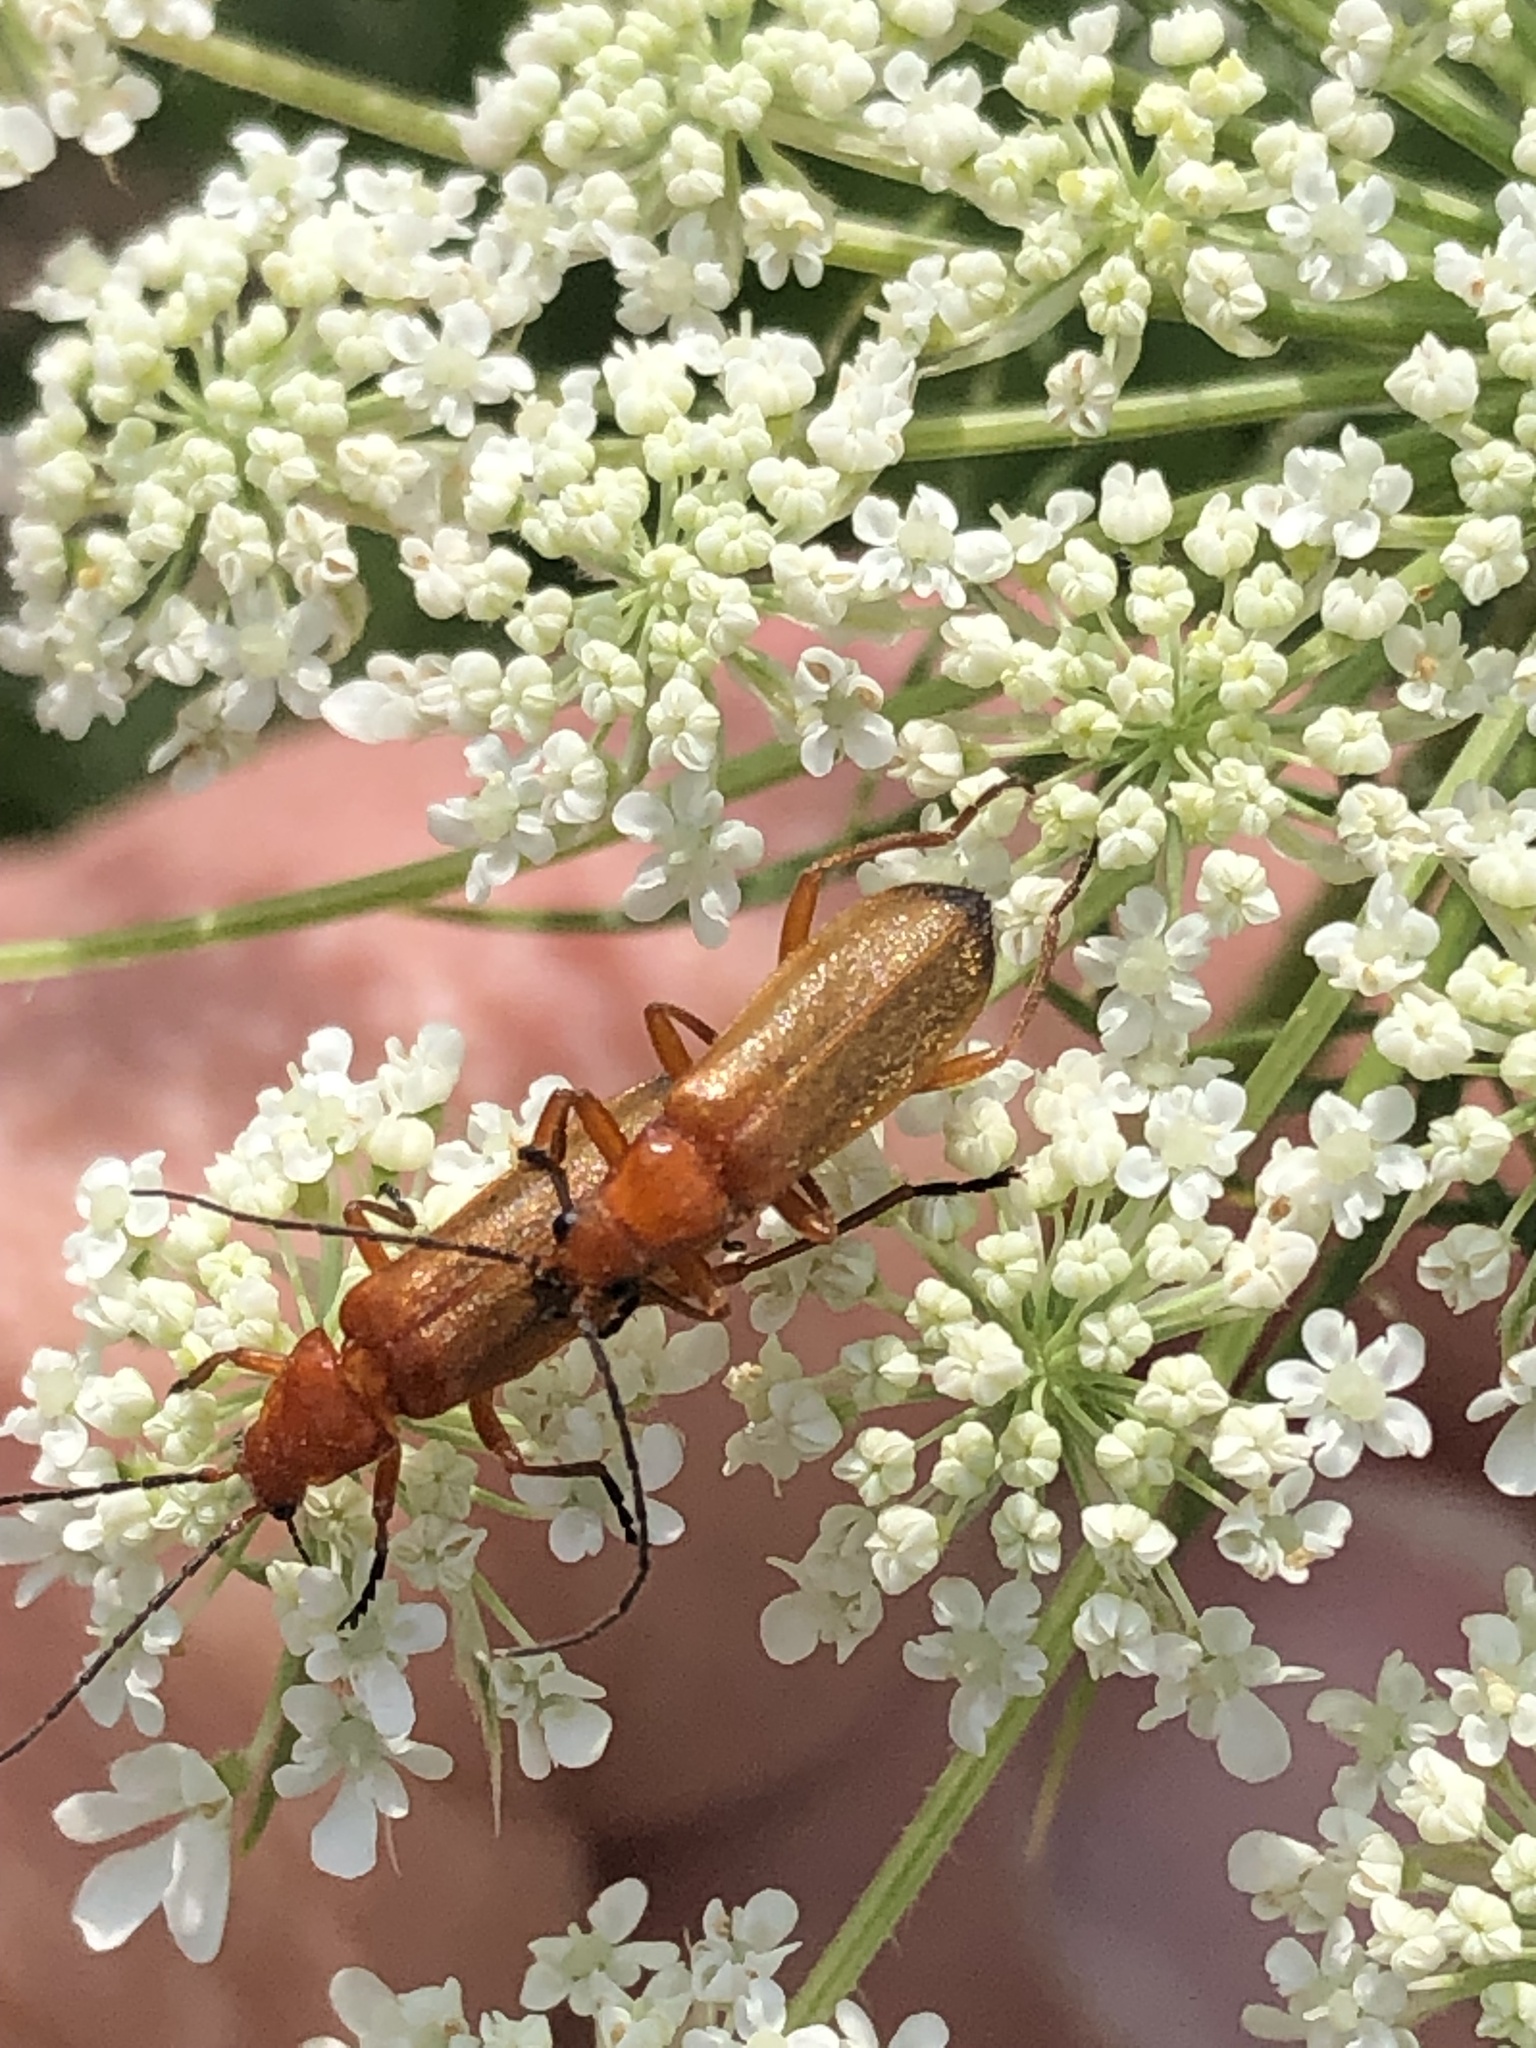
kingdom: Animalia
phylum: Arthropoda
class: Insecta
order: Coleoptera
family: Cantharidae
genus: Rhagonycha
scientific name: Rhagonycha fulva
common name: Common red soldier beetle
